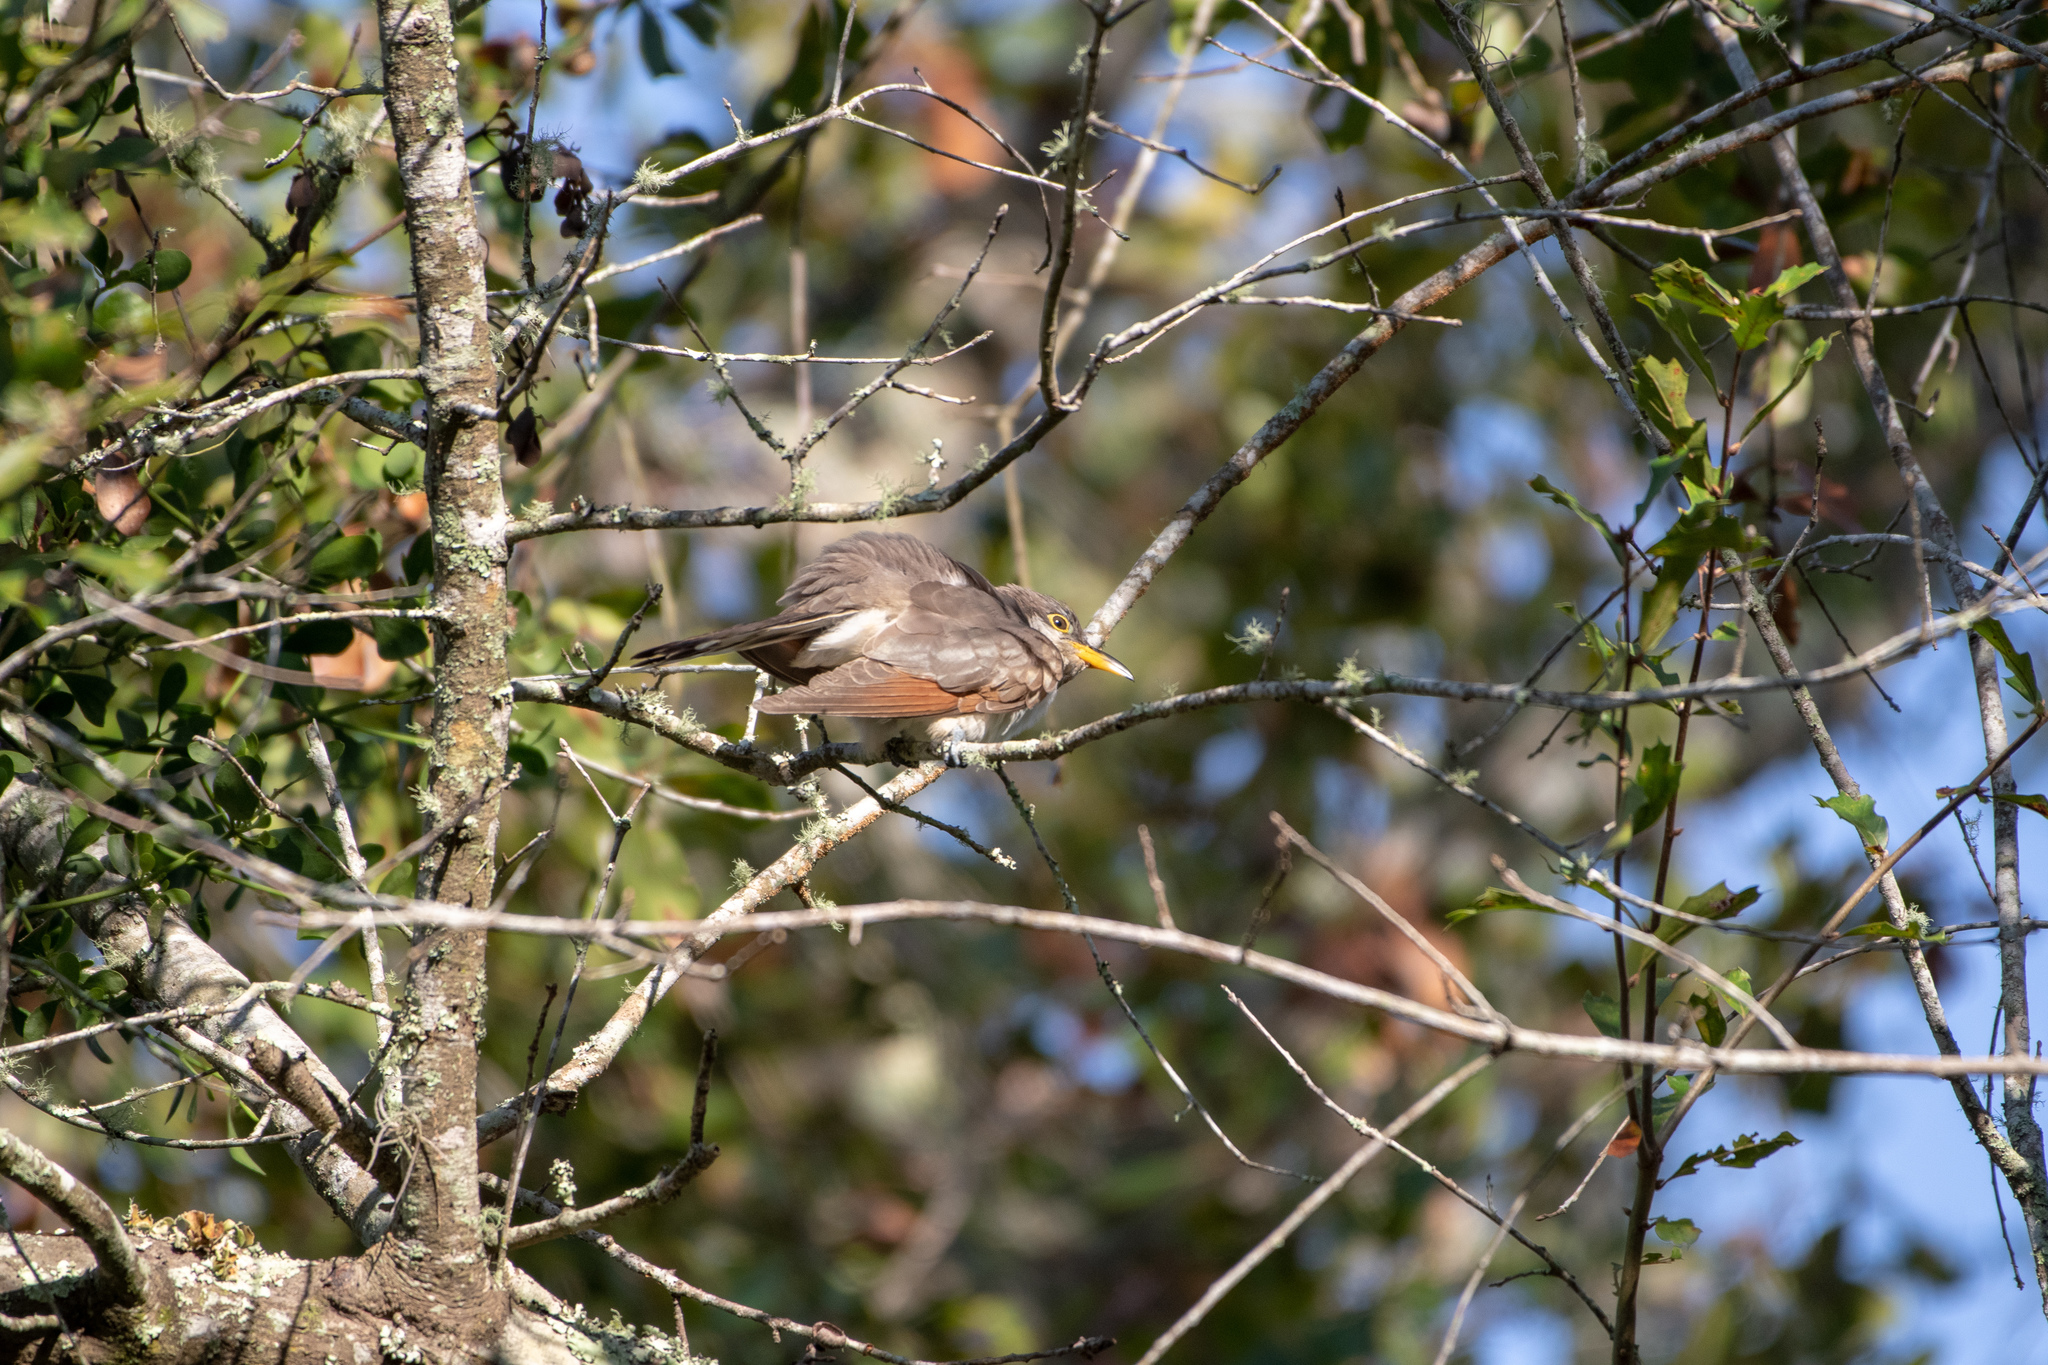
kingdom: Animalia
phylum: Chordata
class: Aves
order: Cuculiformes
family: Cuculidae
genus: Coccyzus
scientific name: Coccyzus americanus
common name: Yellow-billed cuckoo
